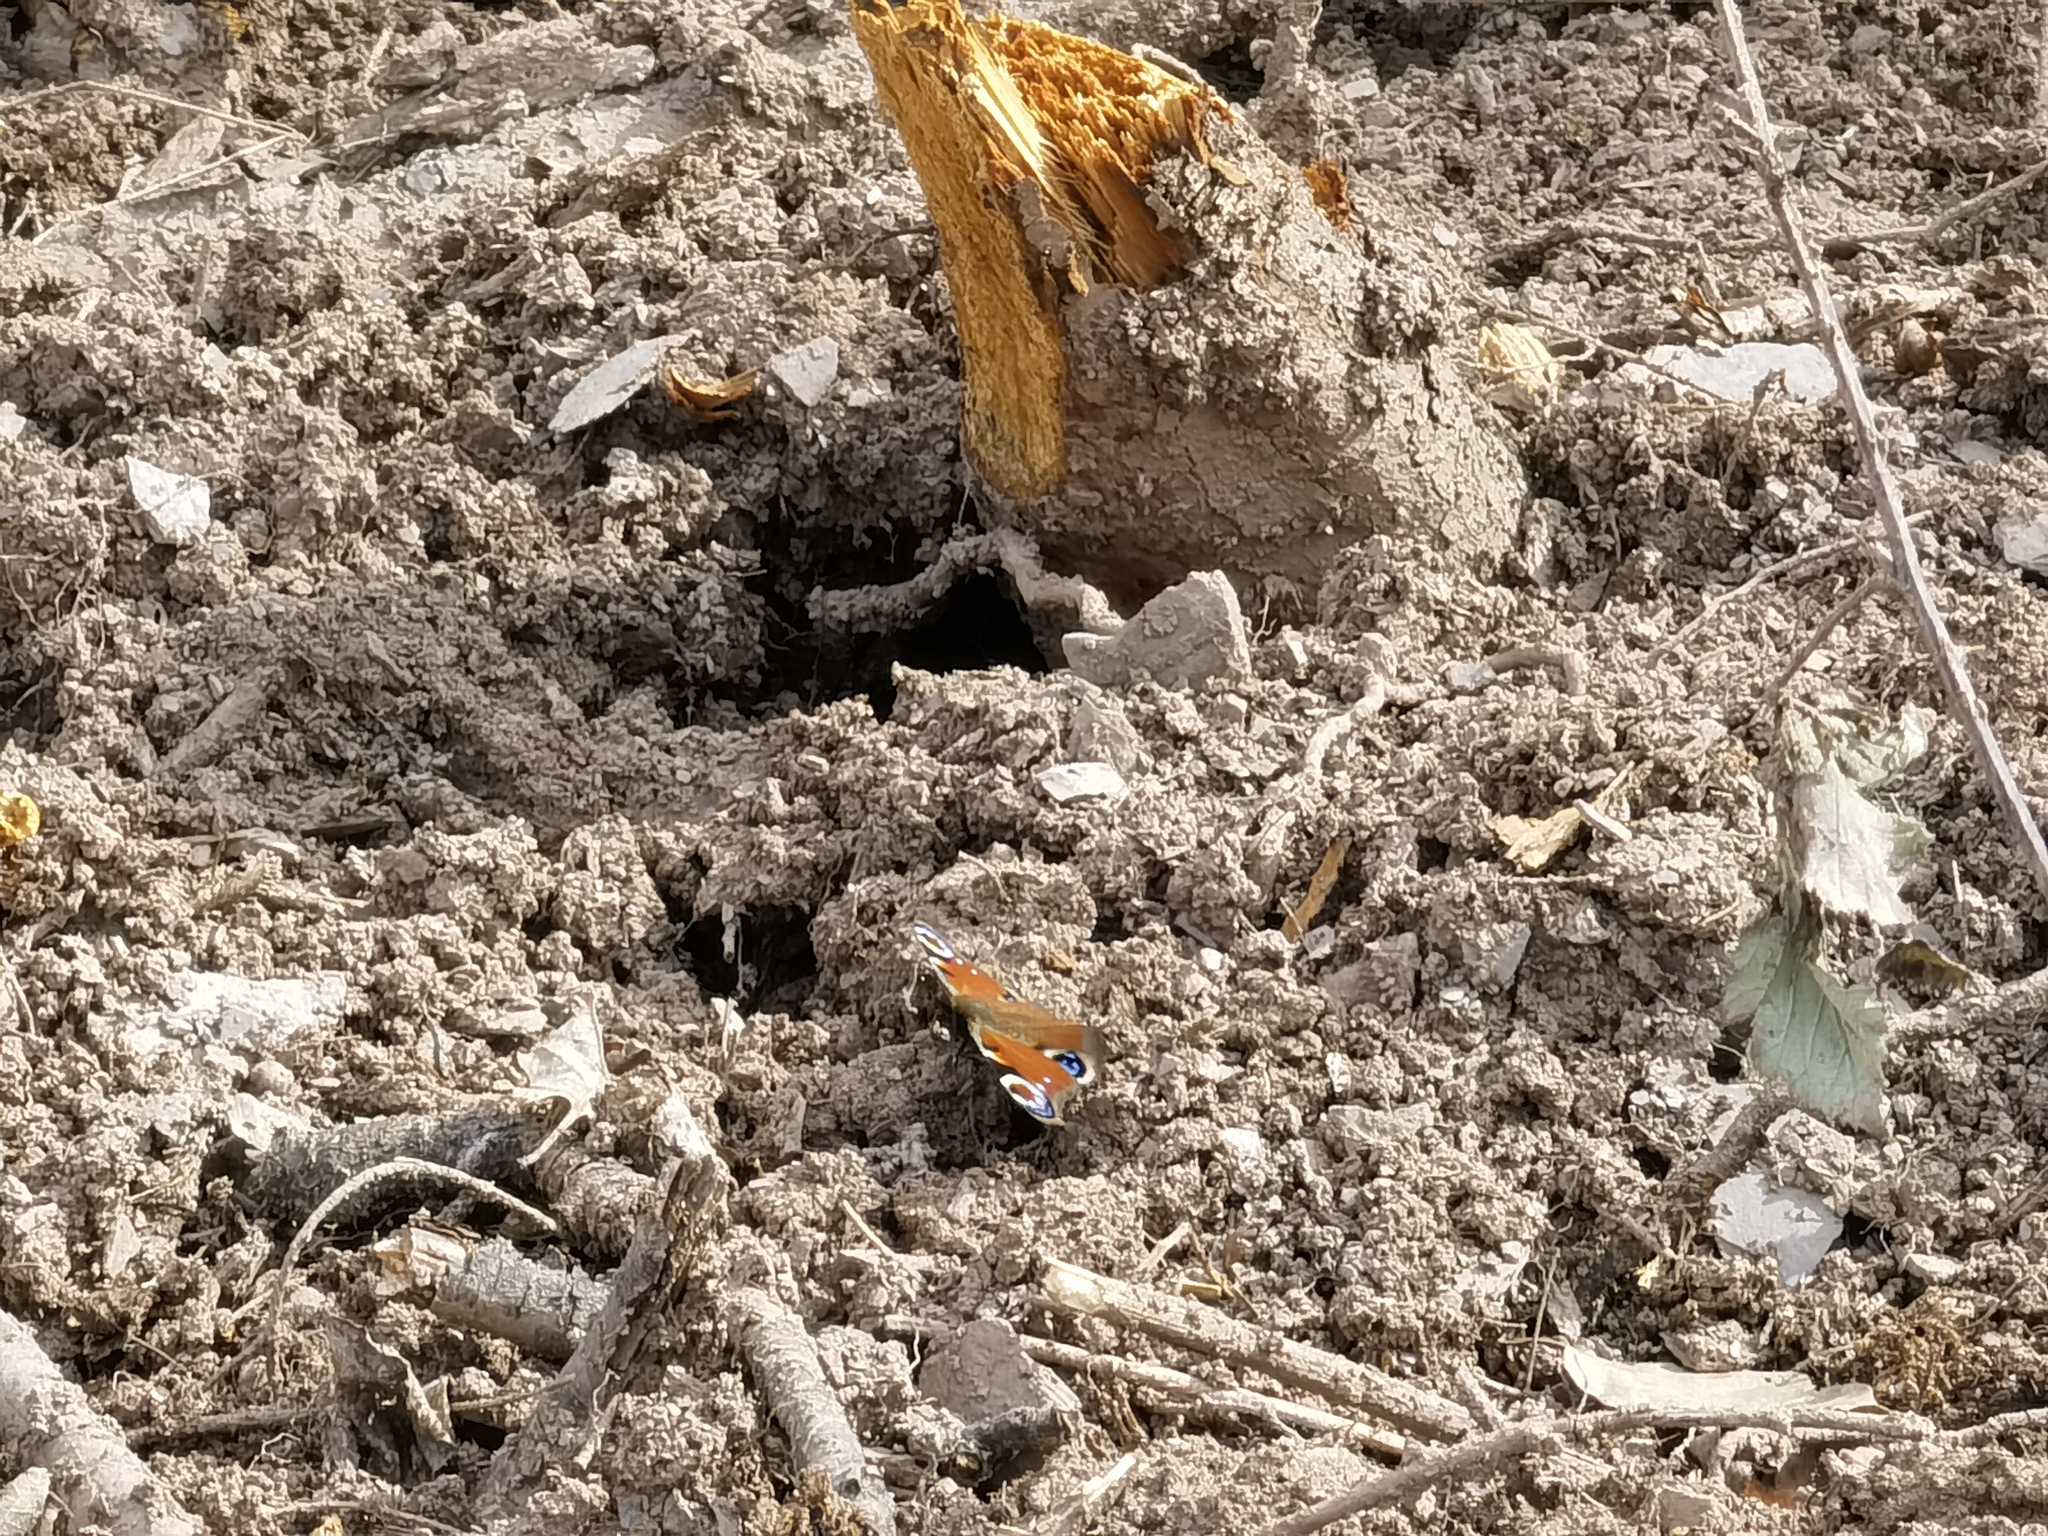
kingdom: Animalia
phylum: Arthropoda
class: Insecta
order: Lepidoptera
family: Nymphalidae
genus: Aglais
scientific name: Aglais io
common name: Peacock
